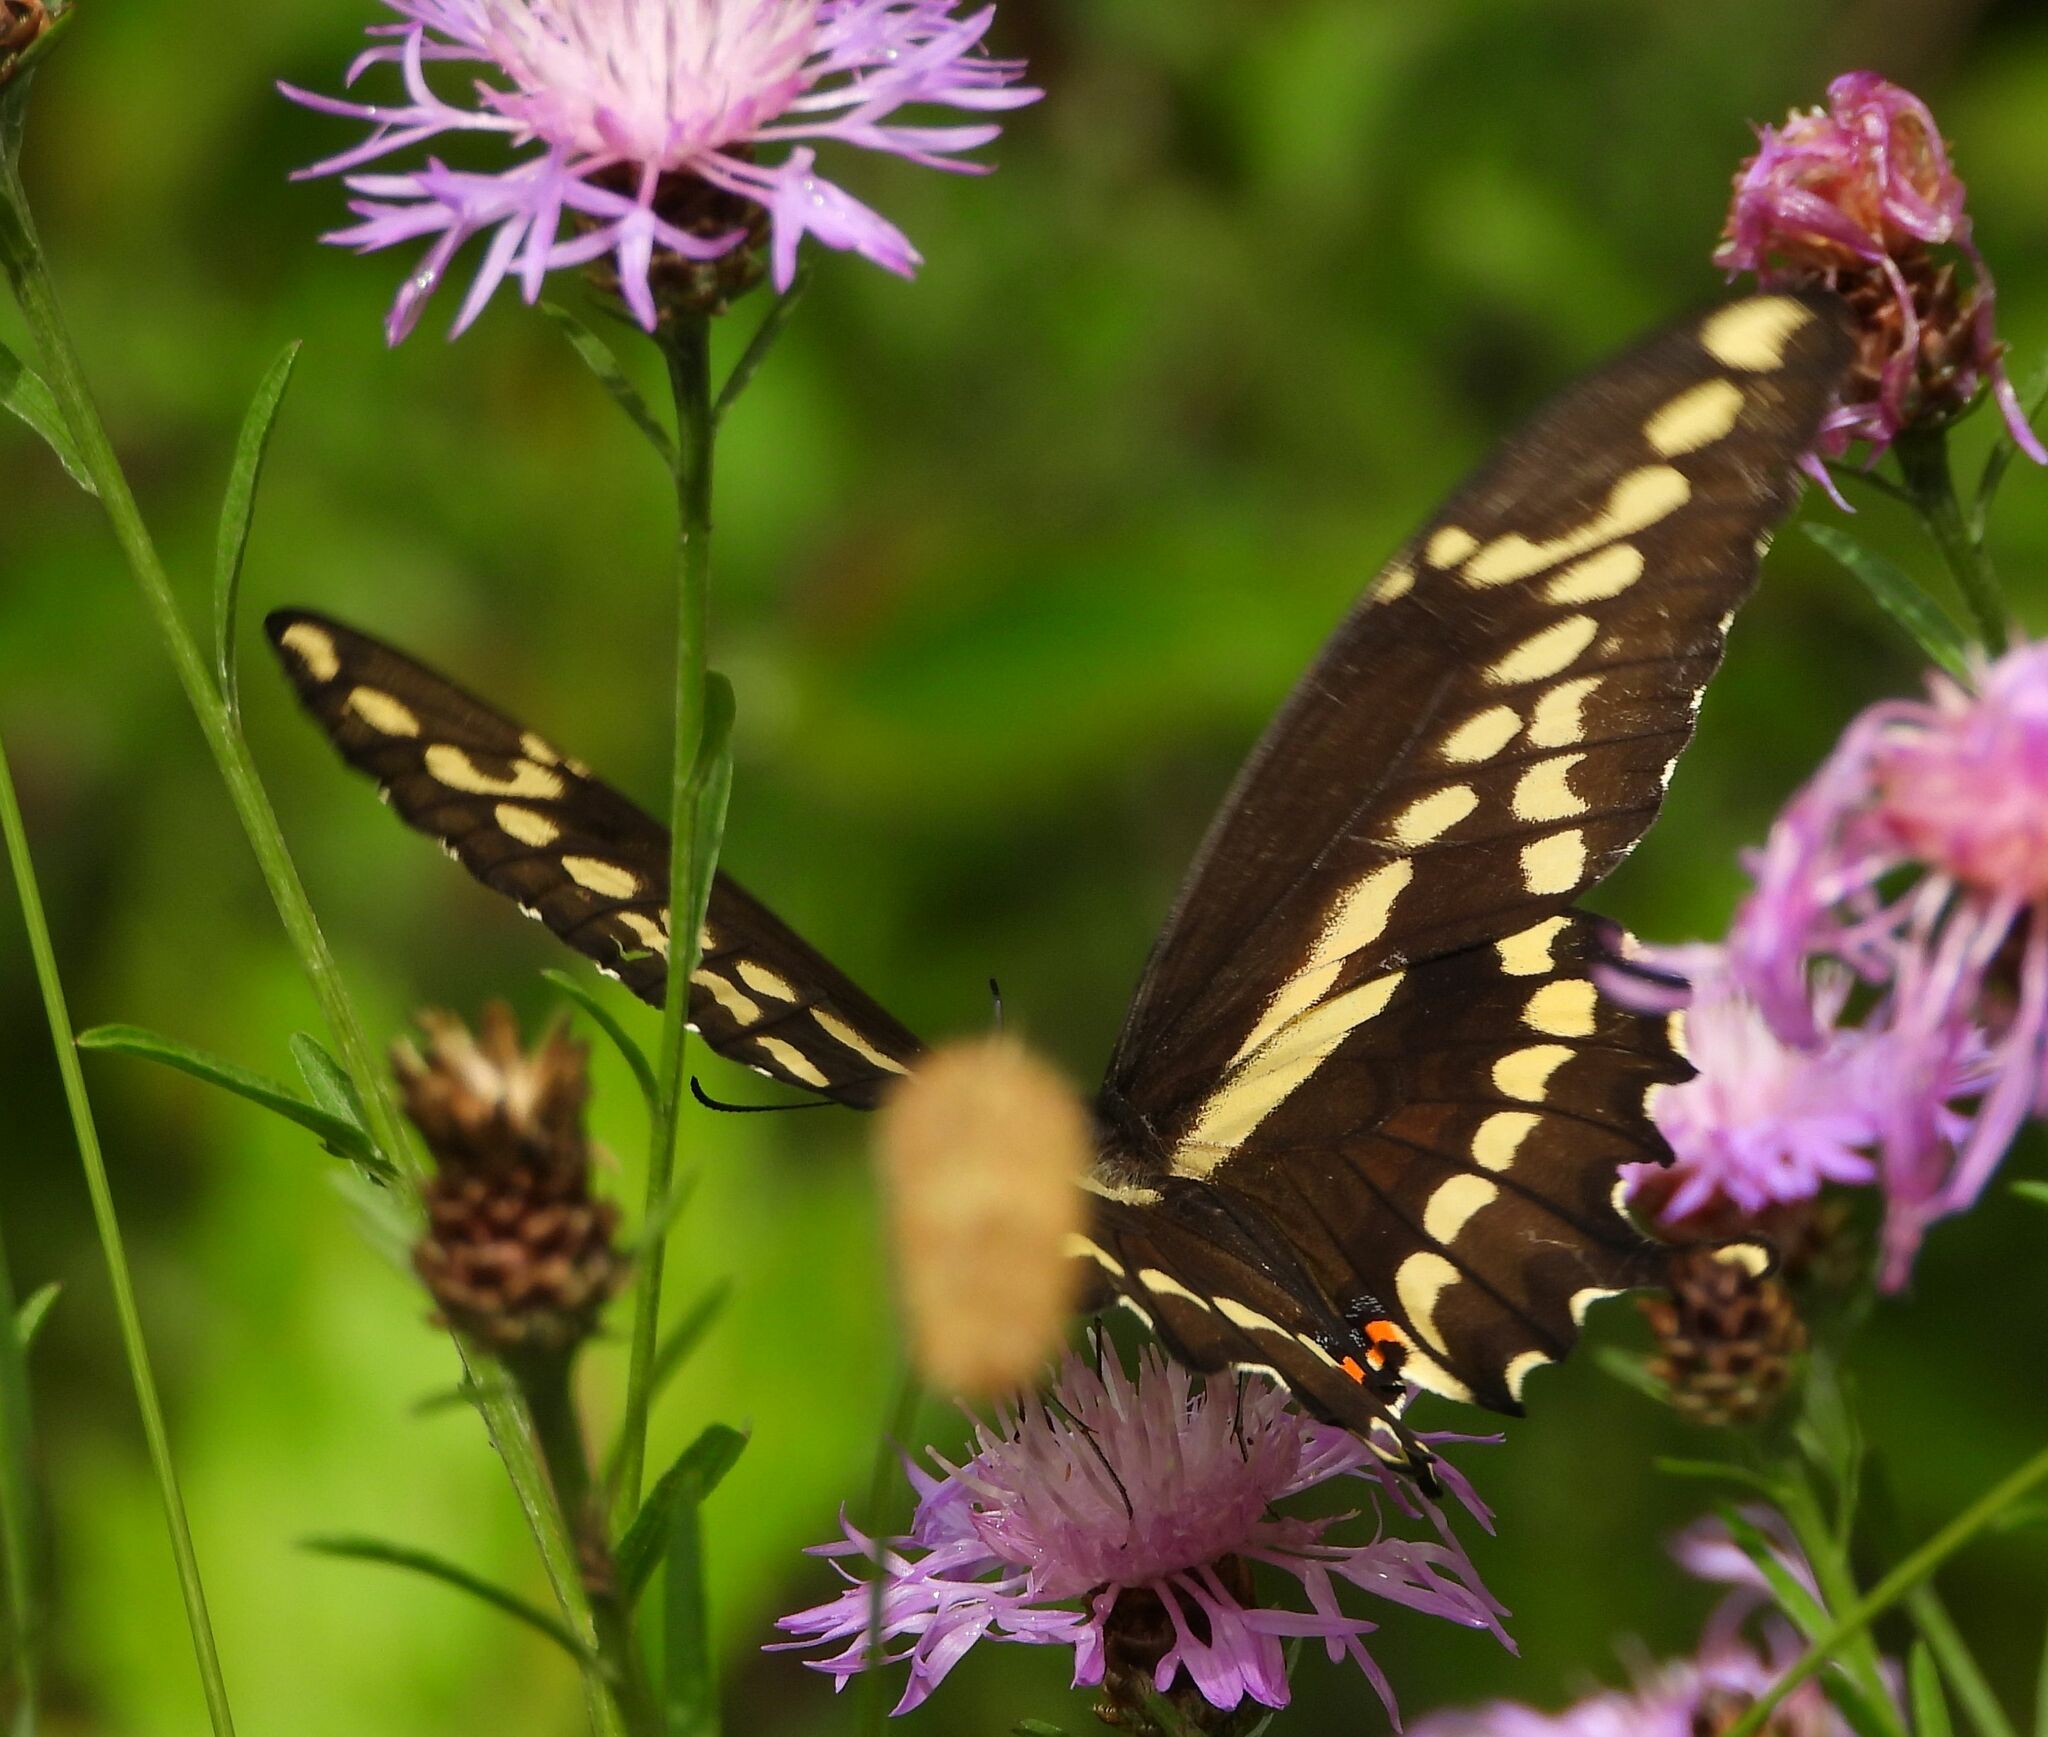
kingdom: Animalia
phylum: Arthropoda
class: Insecta
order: Lepidoptera
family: Papilionidae
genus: Papilio
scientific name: Papilio cresphontes
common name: Giant swallowtail
